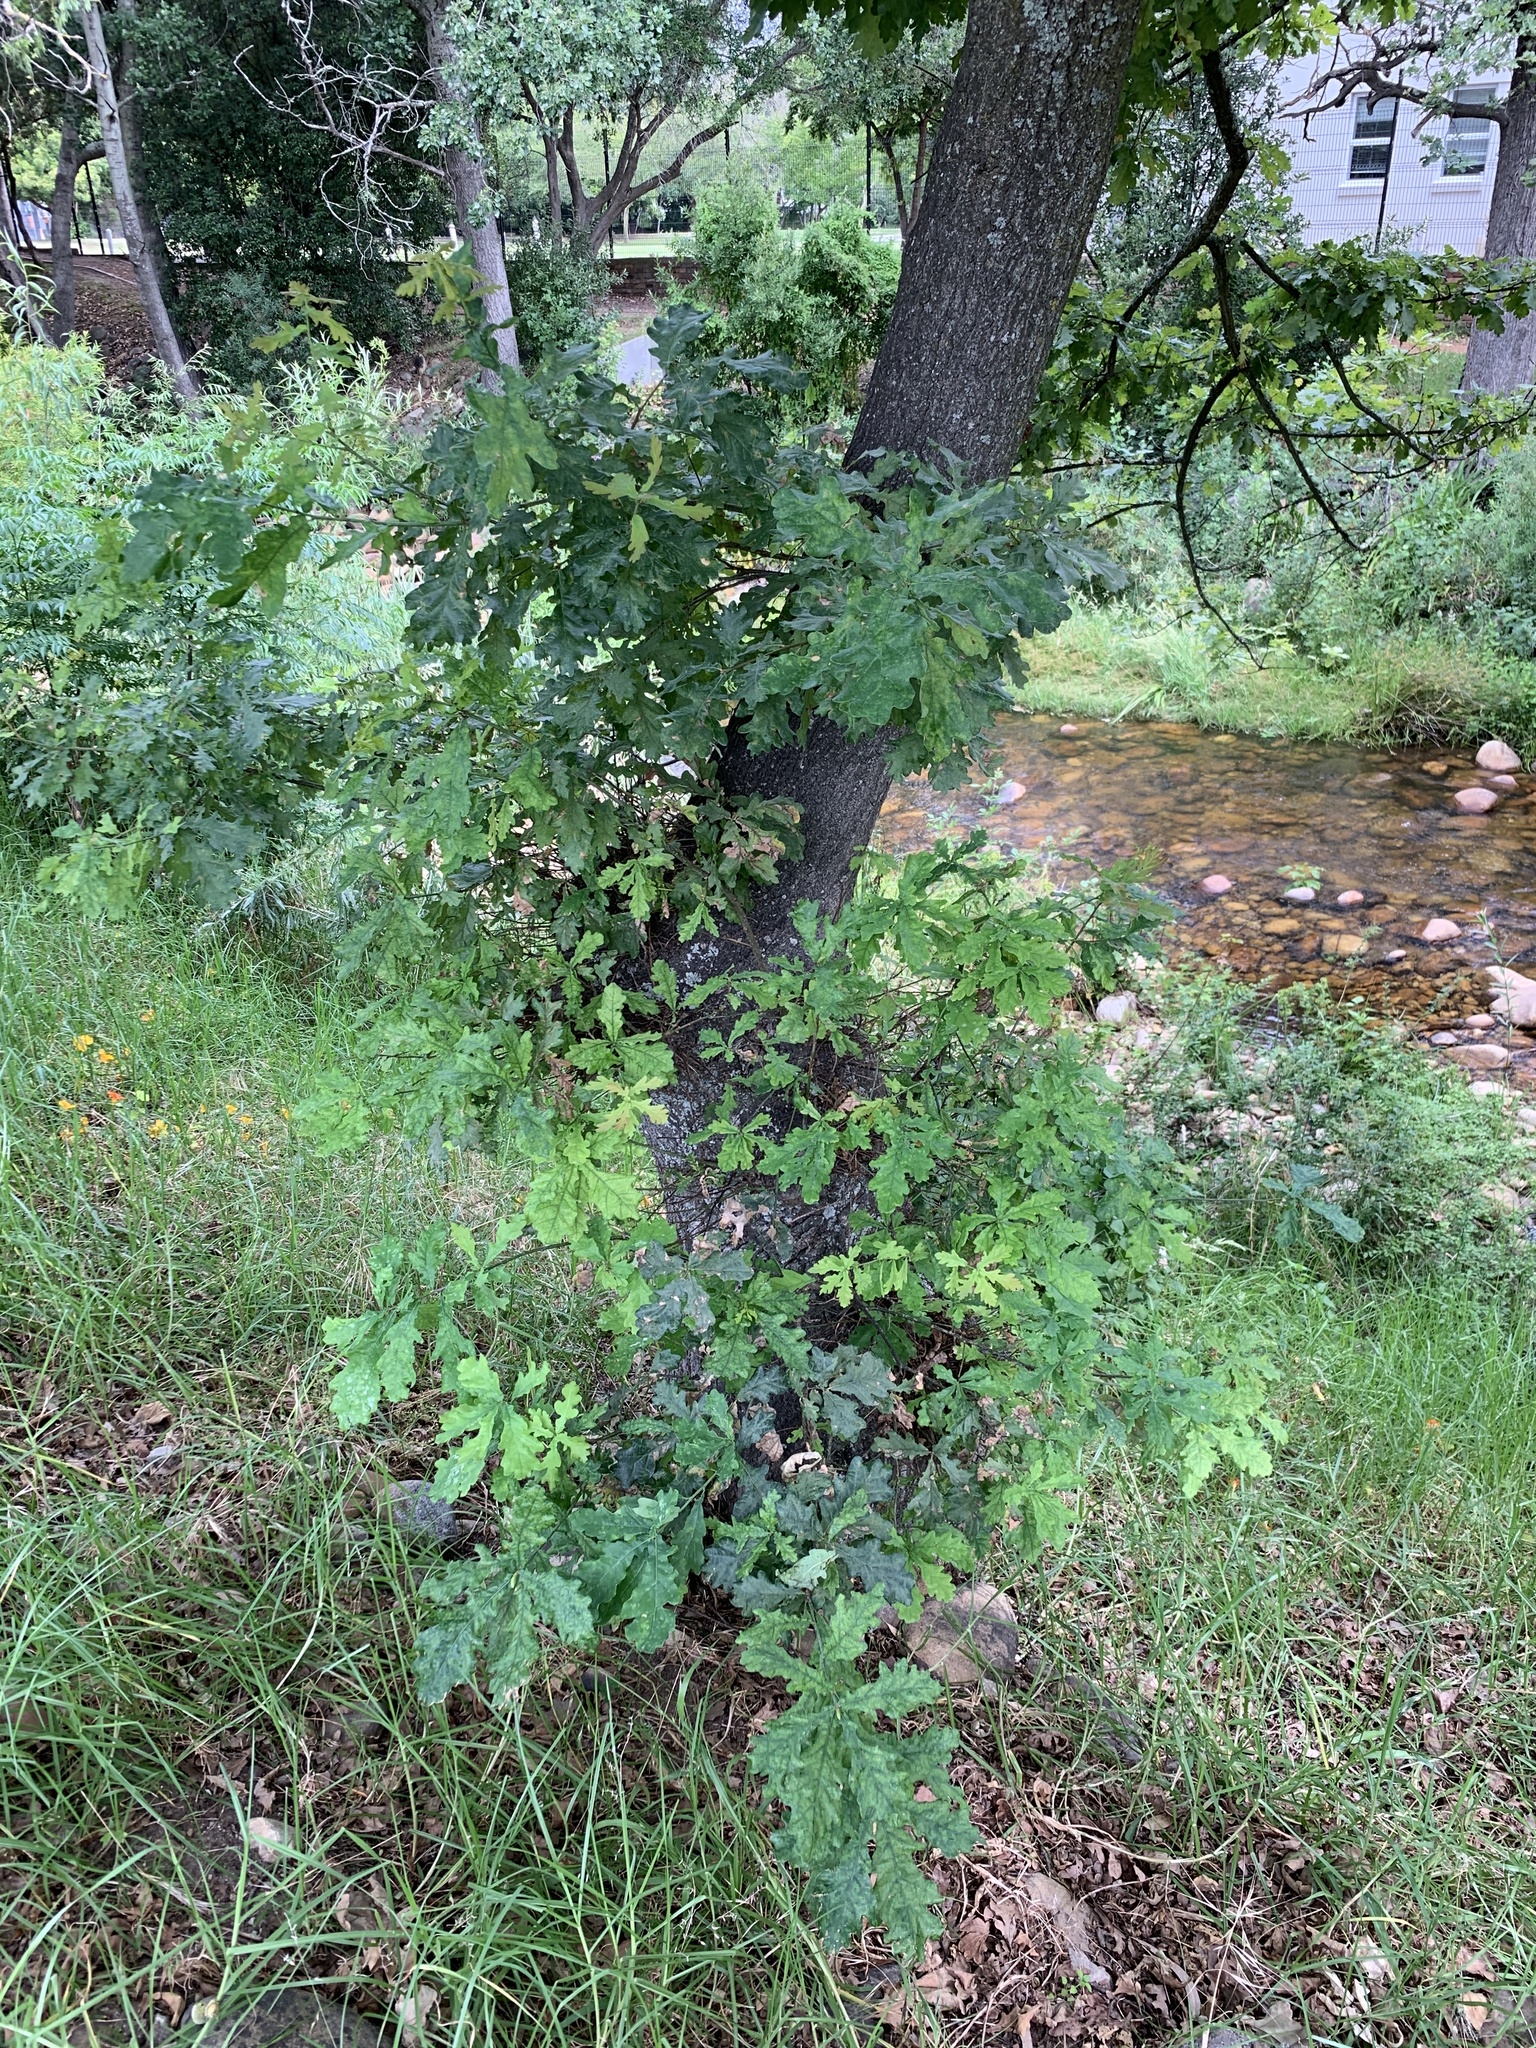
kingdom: Plantae
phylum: Tracheophyta
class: Magnoliopsida
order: Fagales
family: Fagaceae
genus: Quercus
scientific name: Quercus robur
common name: Pedunculate oak
